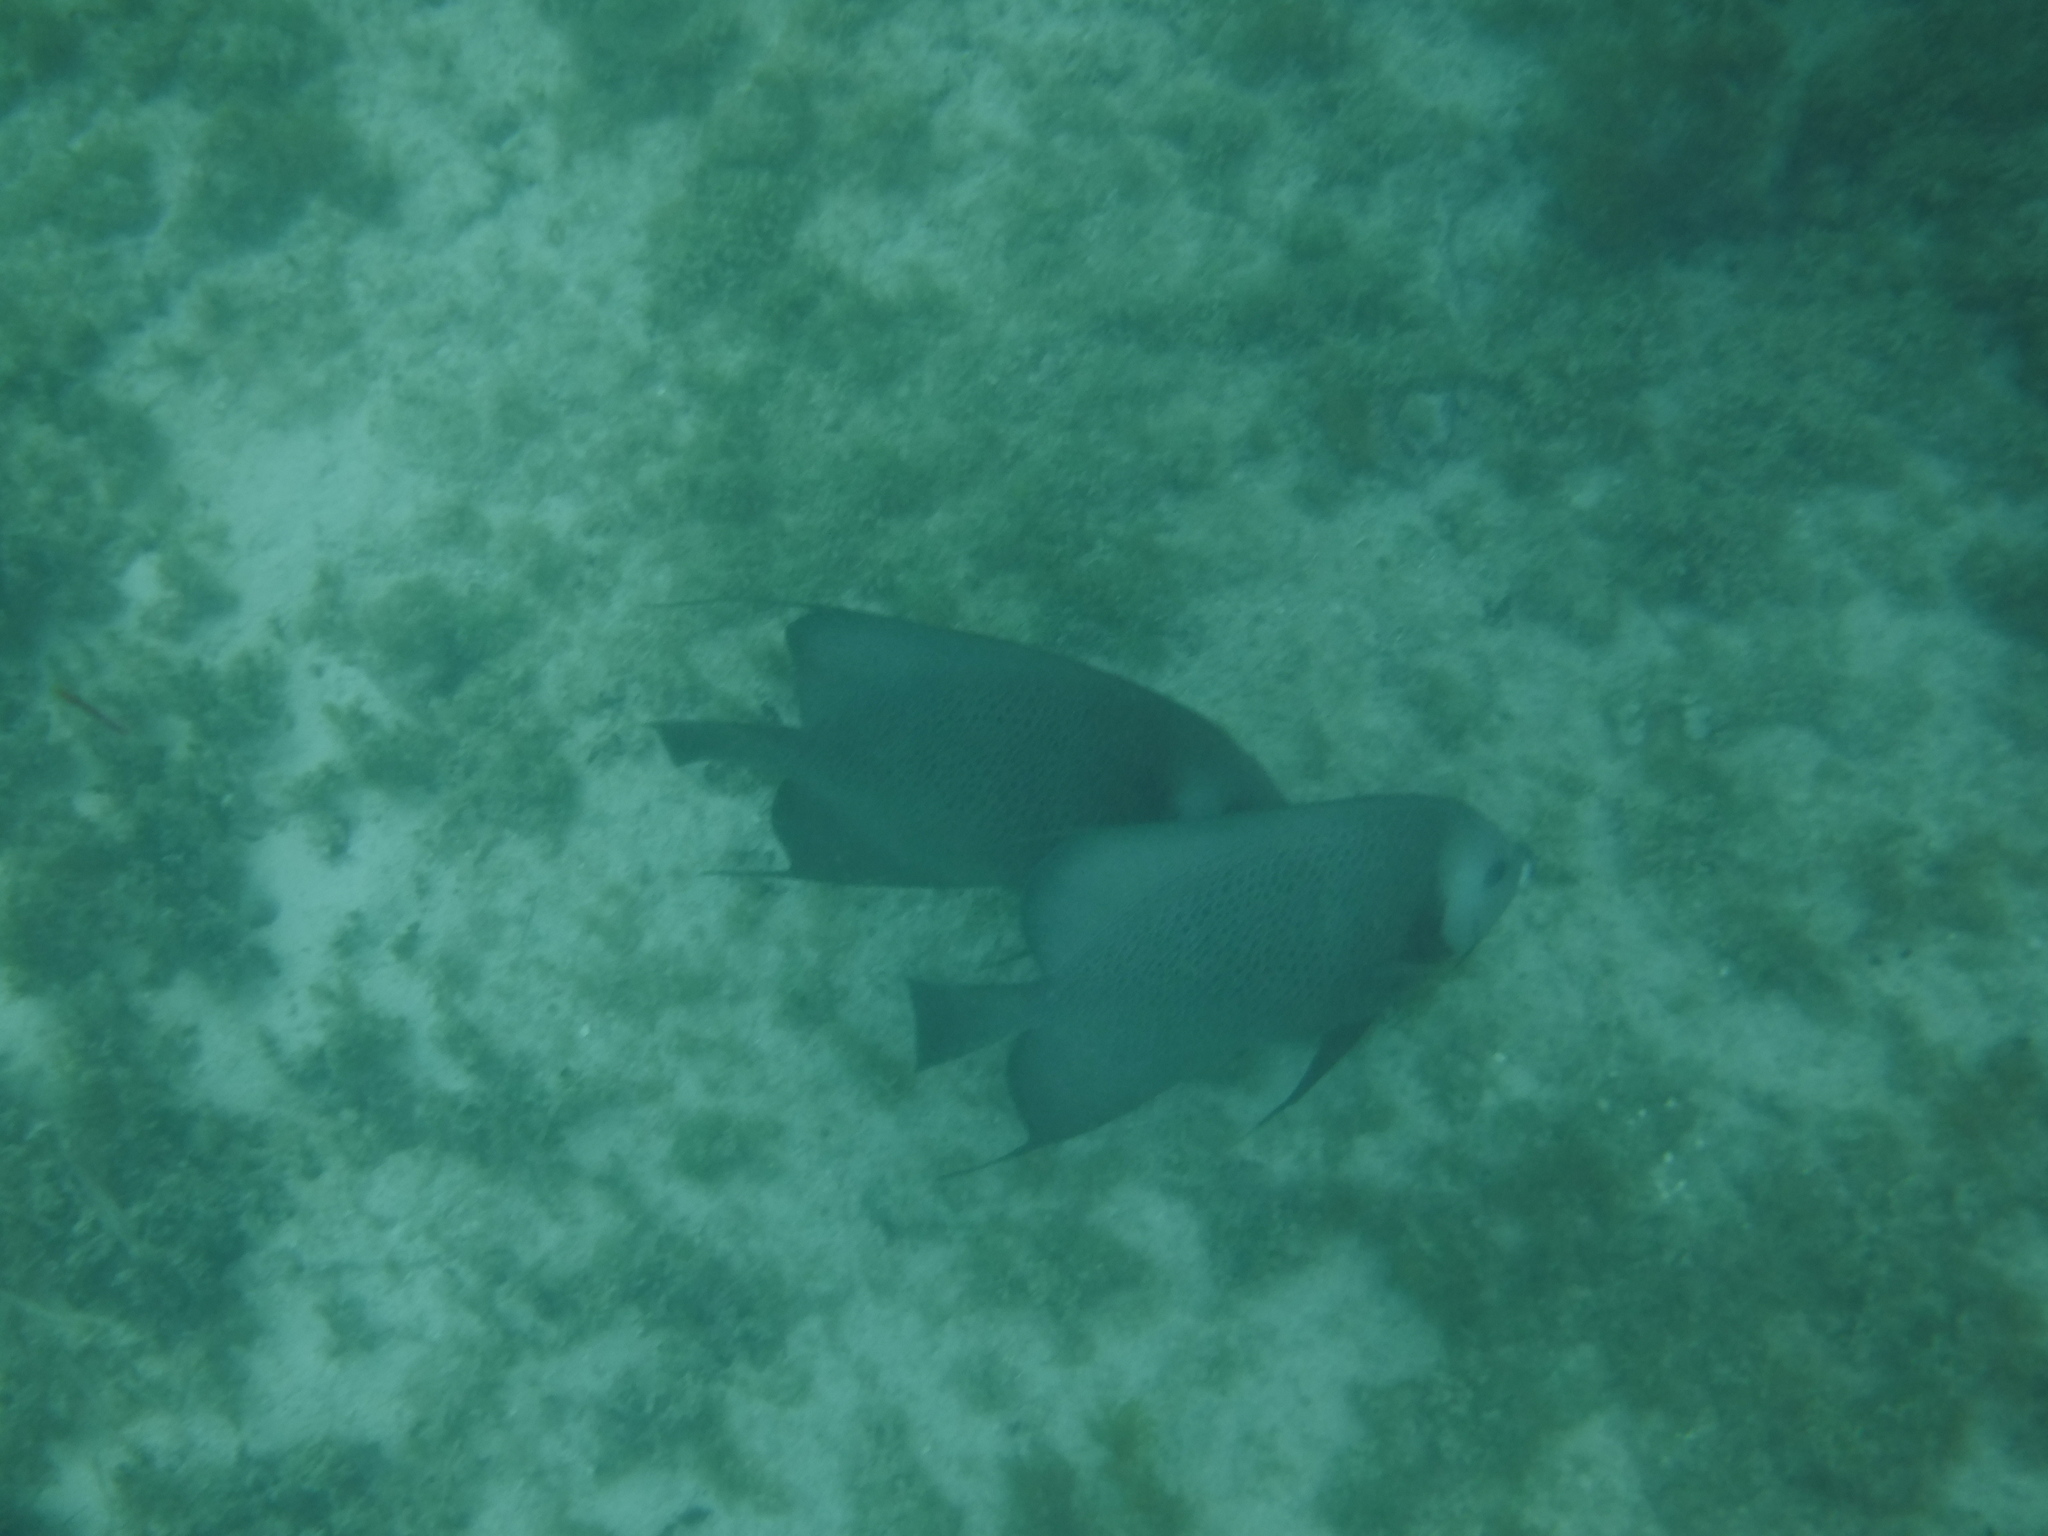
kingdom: Animalia
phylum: Chordata
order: Perciformes
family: Pomacanthidae
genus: Pomacanthus
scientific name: Pomacanthus arcuatus
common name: Gray angelfish
